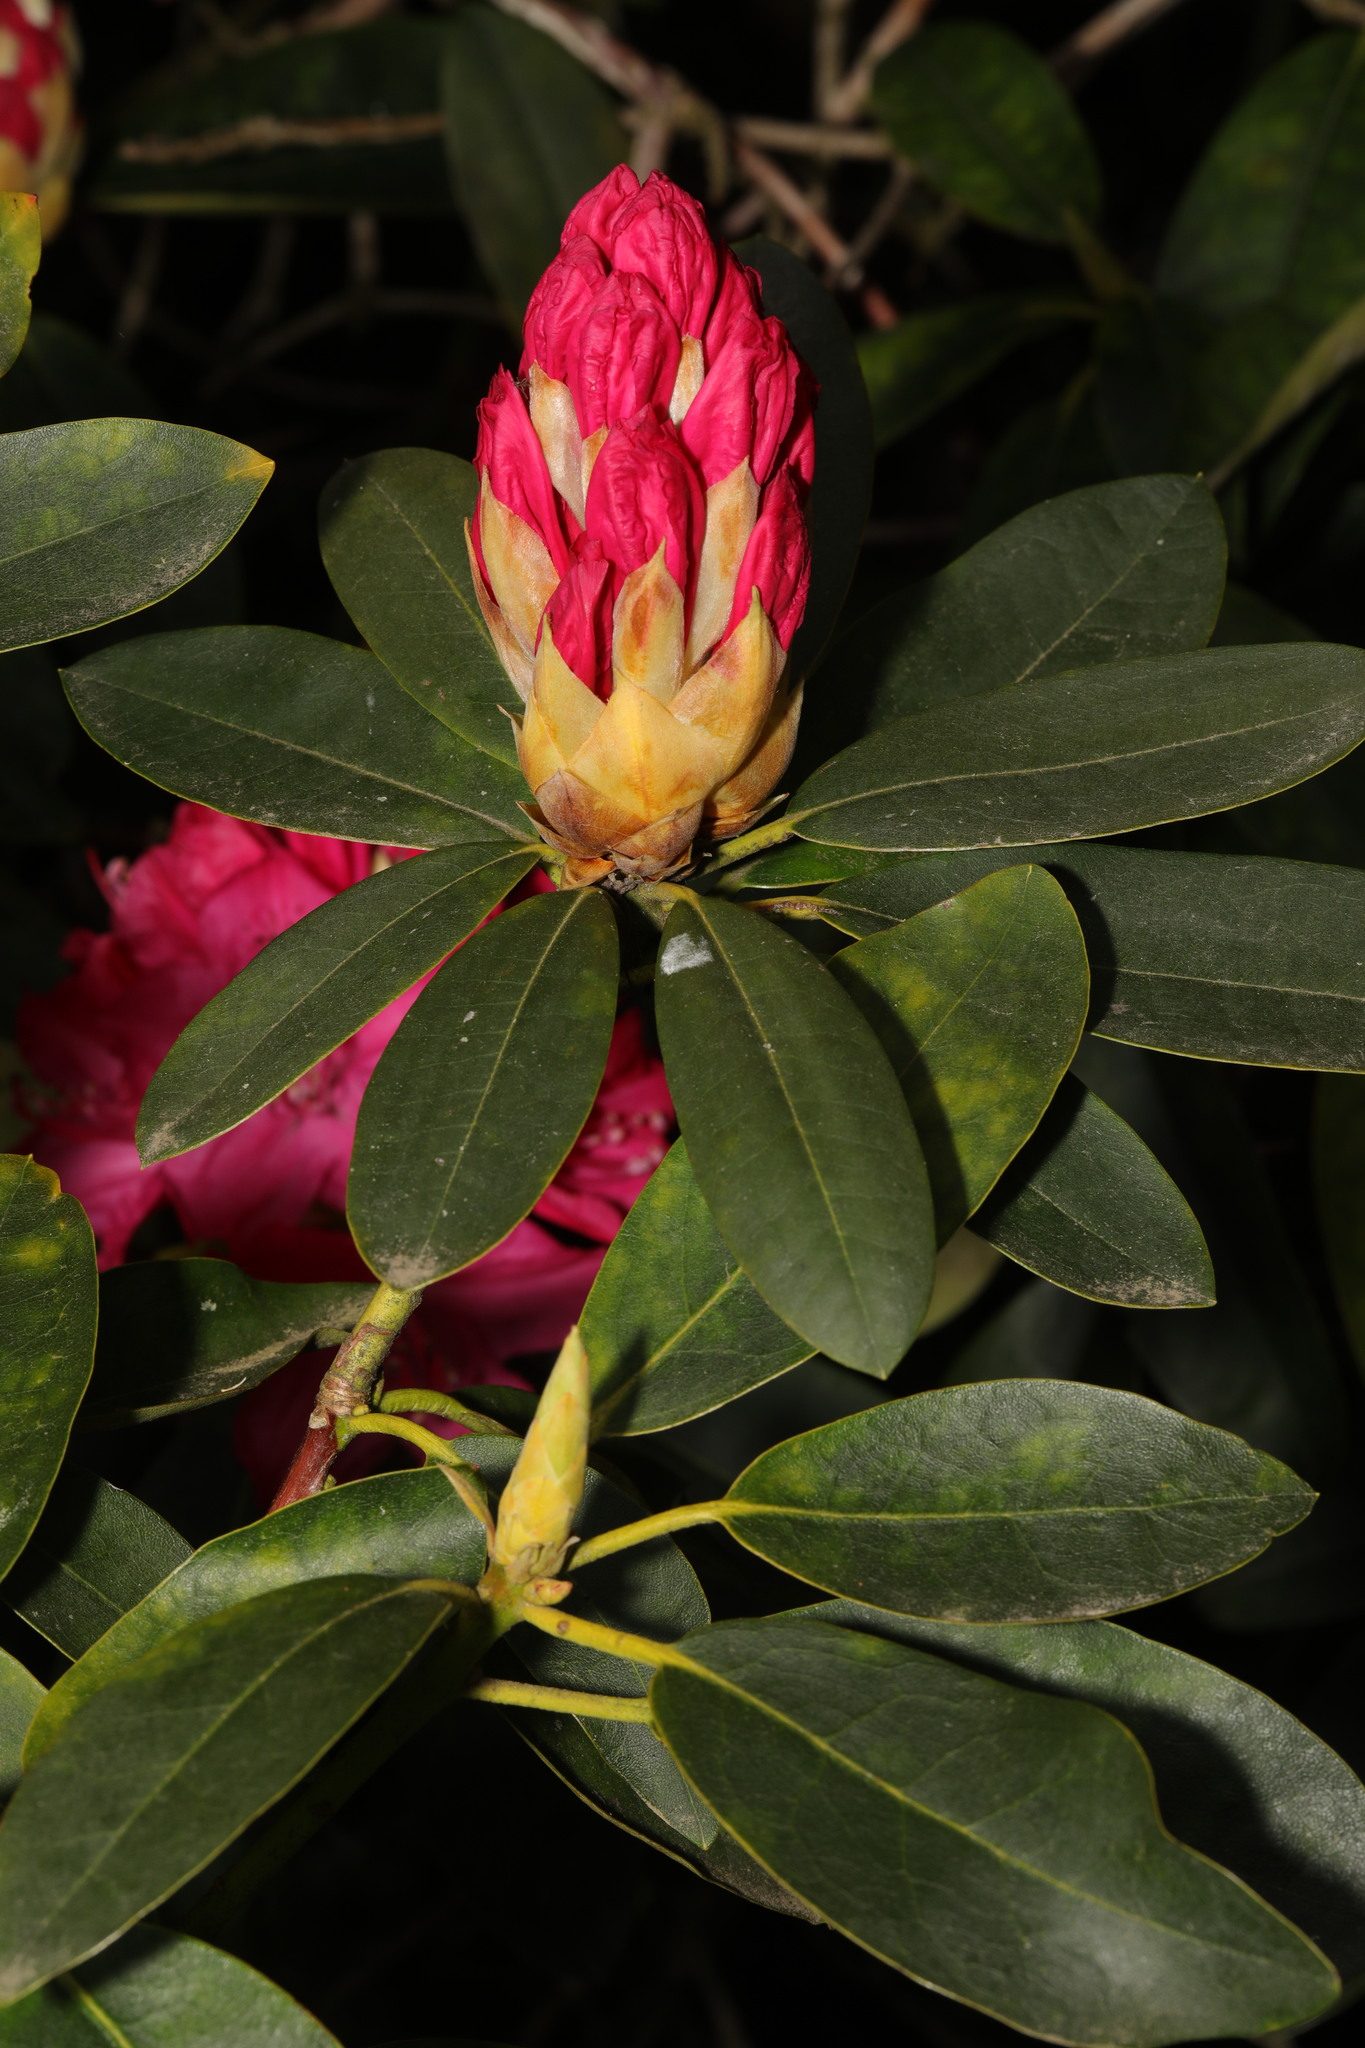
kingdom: Plantae
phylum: Tracheophyta
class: Magnoliopsida
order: Ericales
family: Ericaceae
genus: Rhododendron
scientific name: Rhododendron
